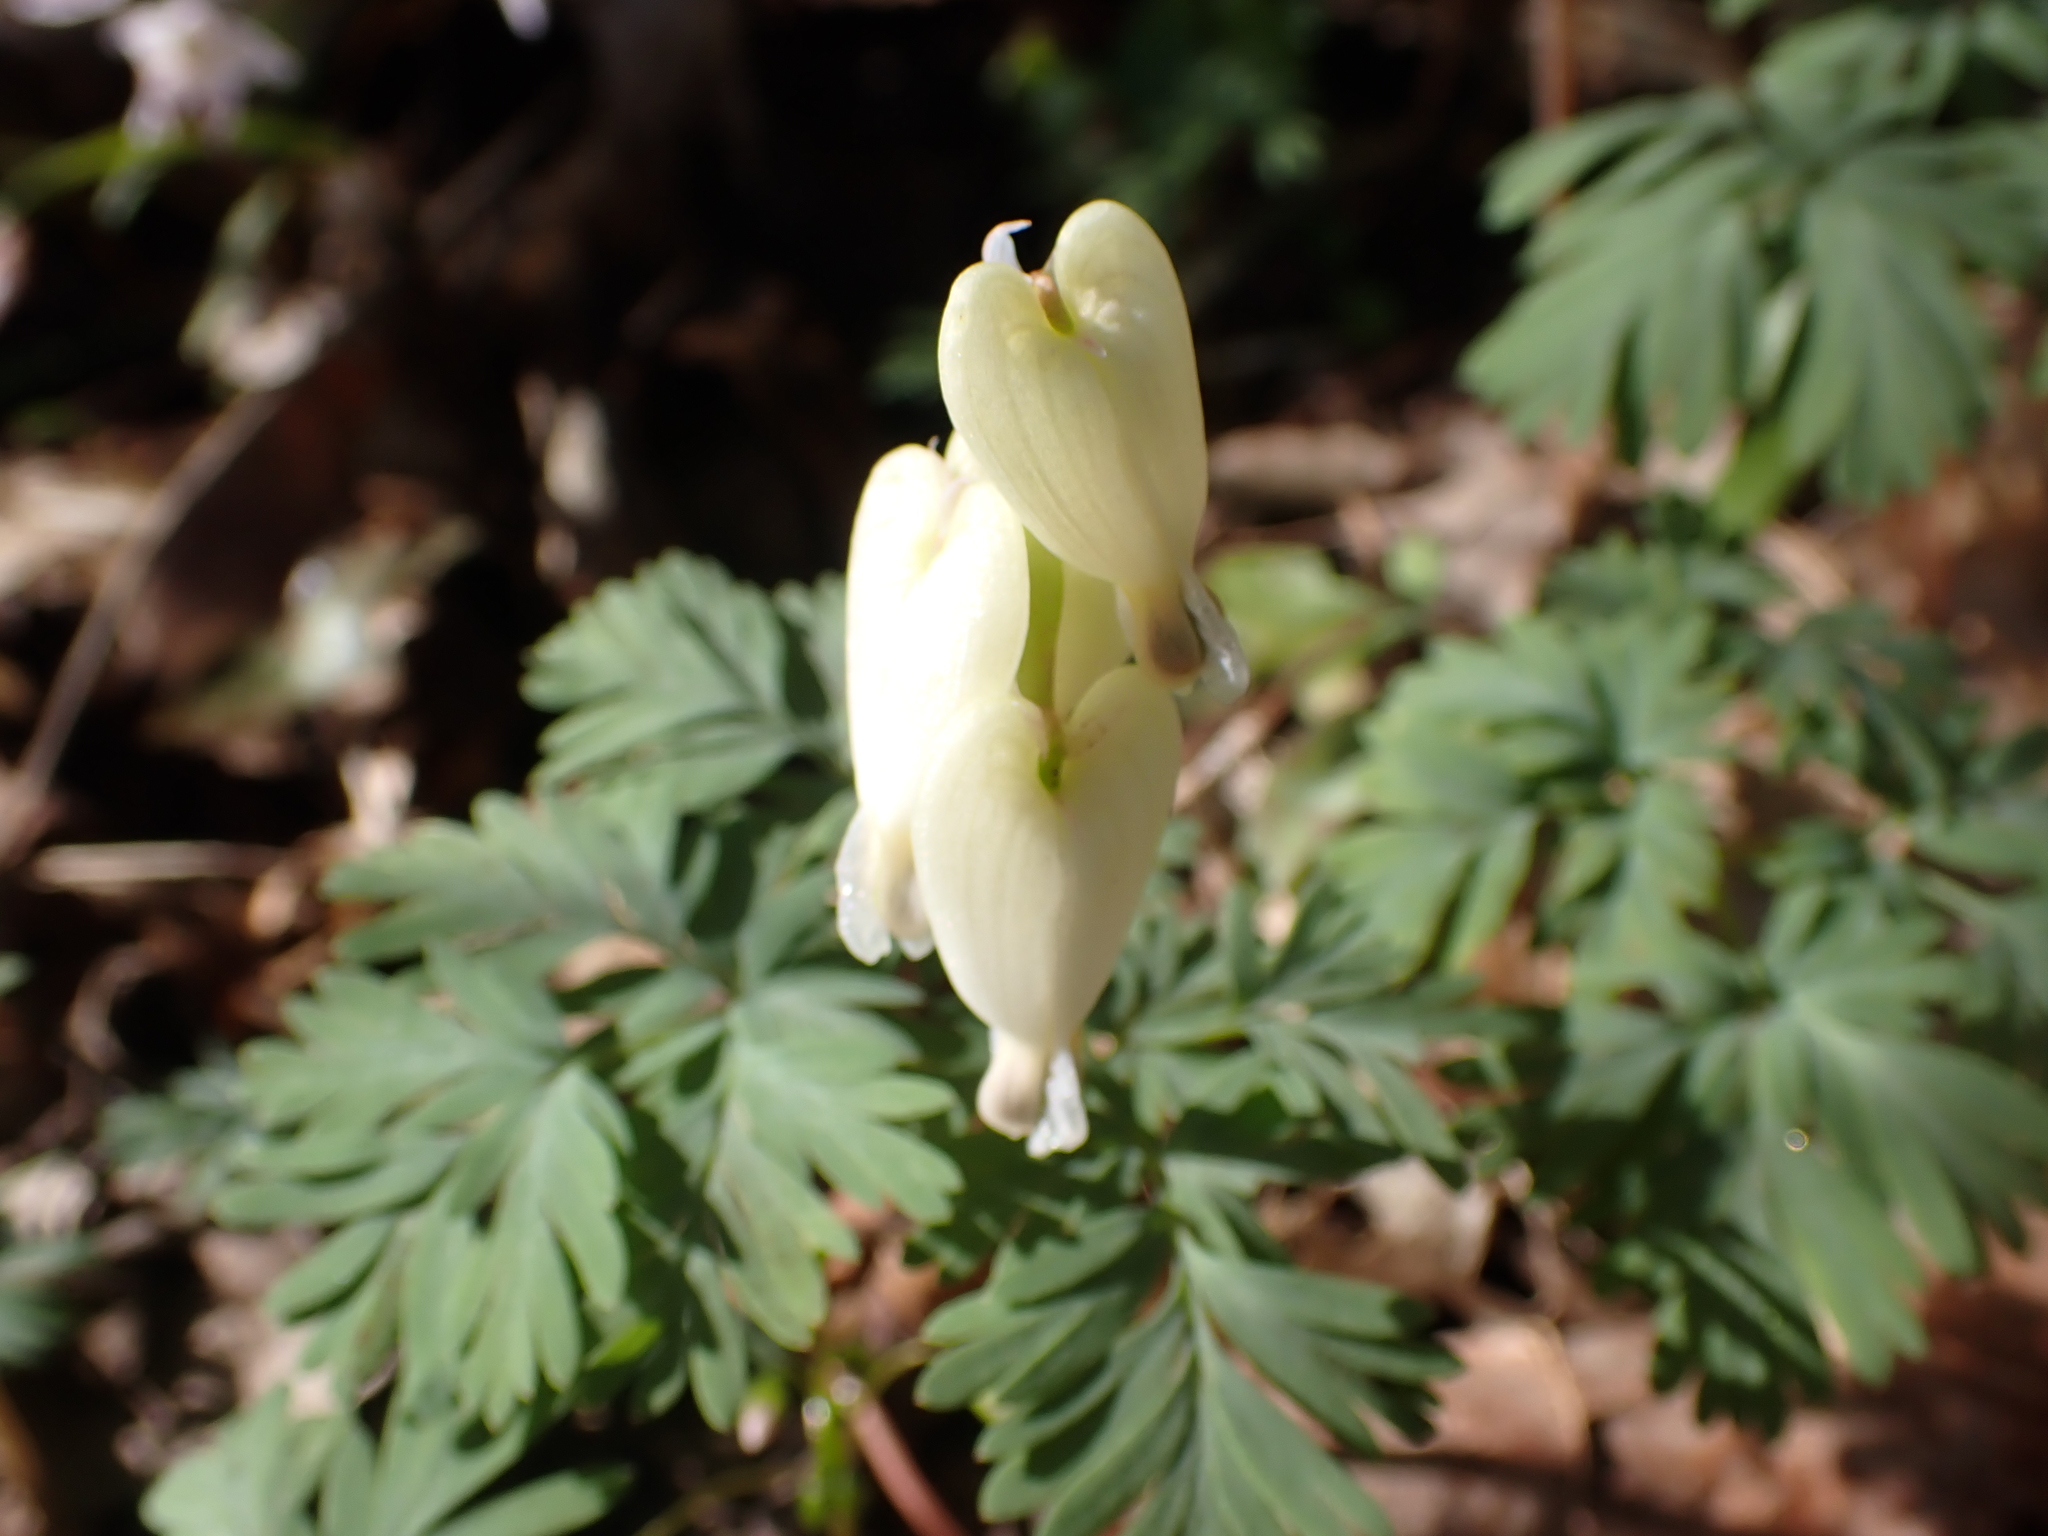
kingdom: Plantae
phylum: Tracheophyta
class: Magnoliopsida
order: Ranunculales
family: Papaveraceae
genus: Dicentra
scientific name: Dicentra canadensis
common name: Squirrel-corn
